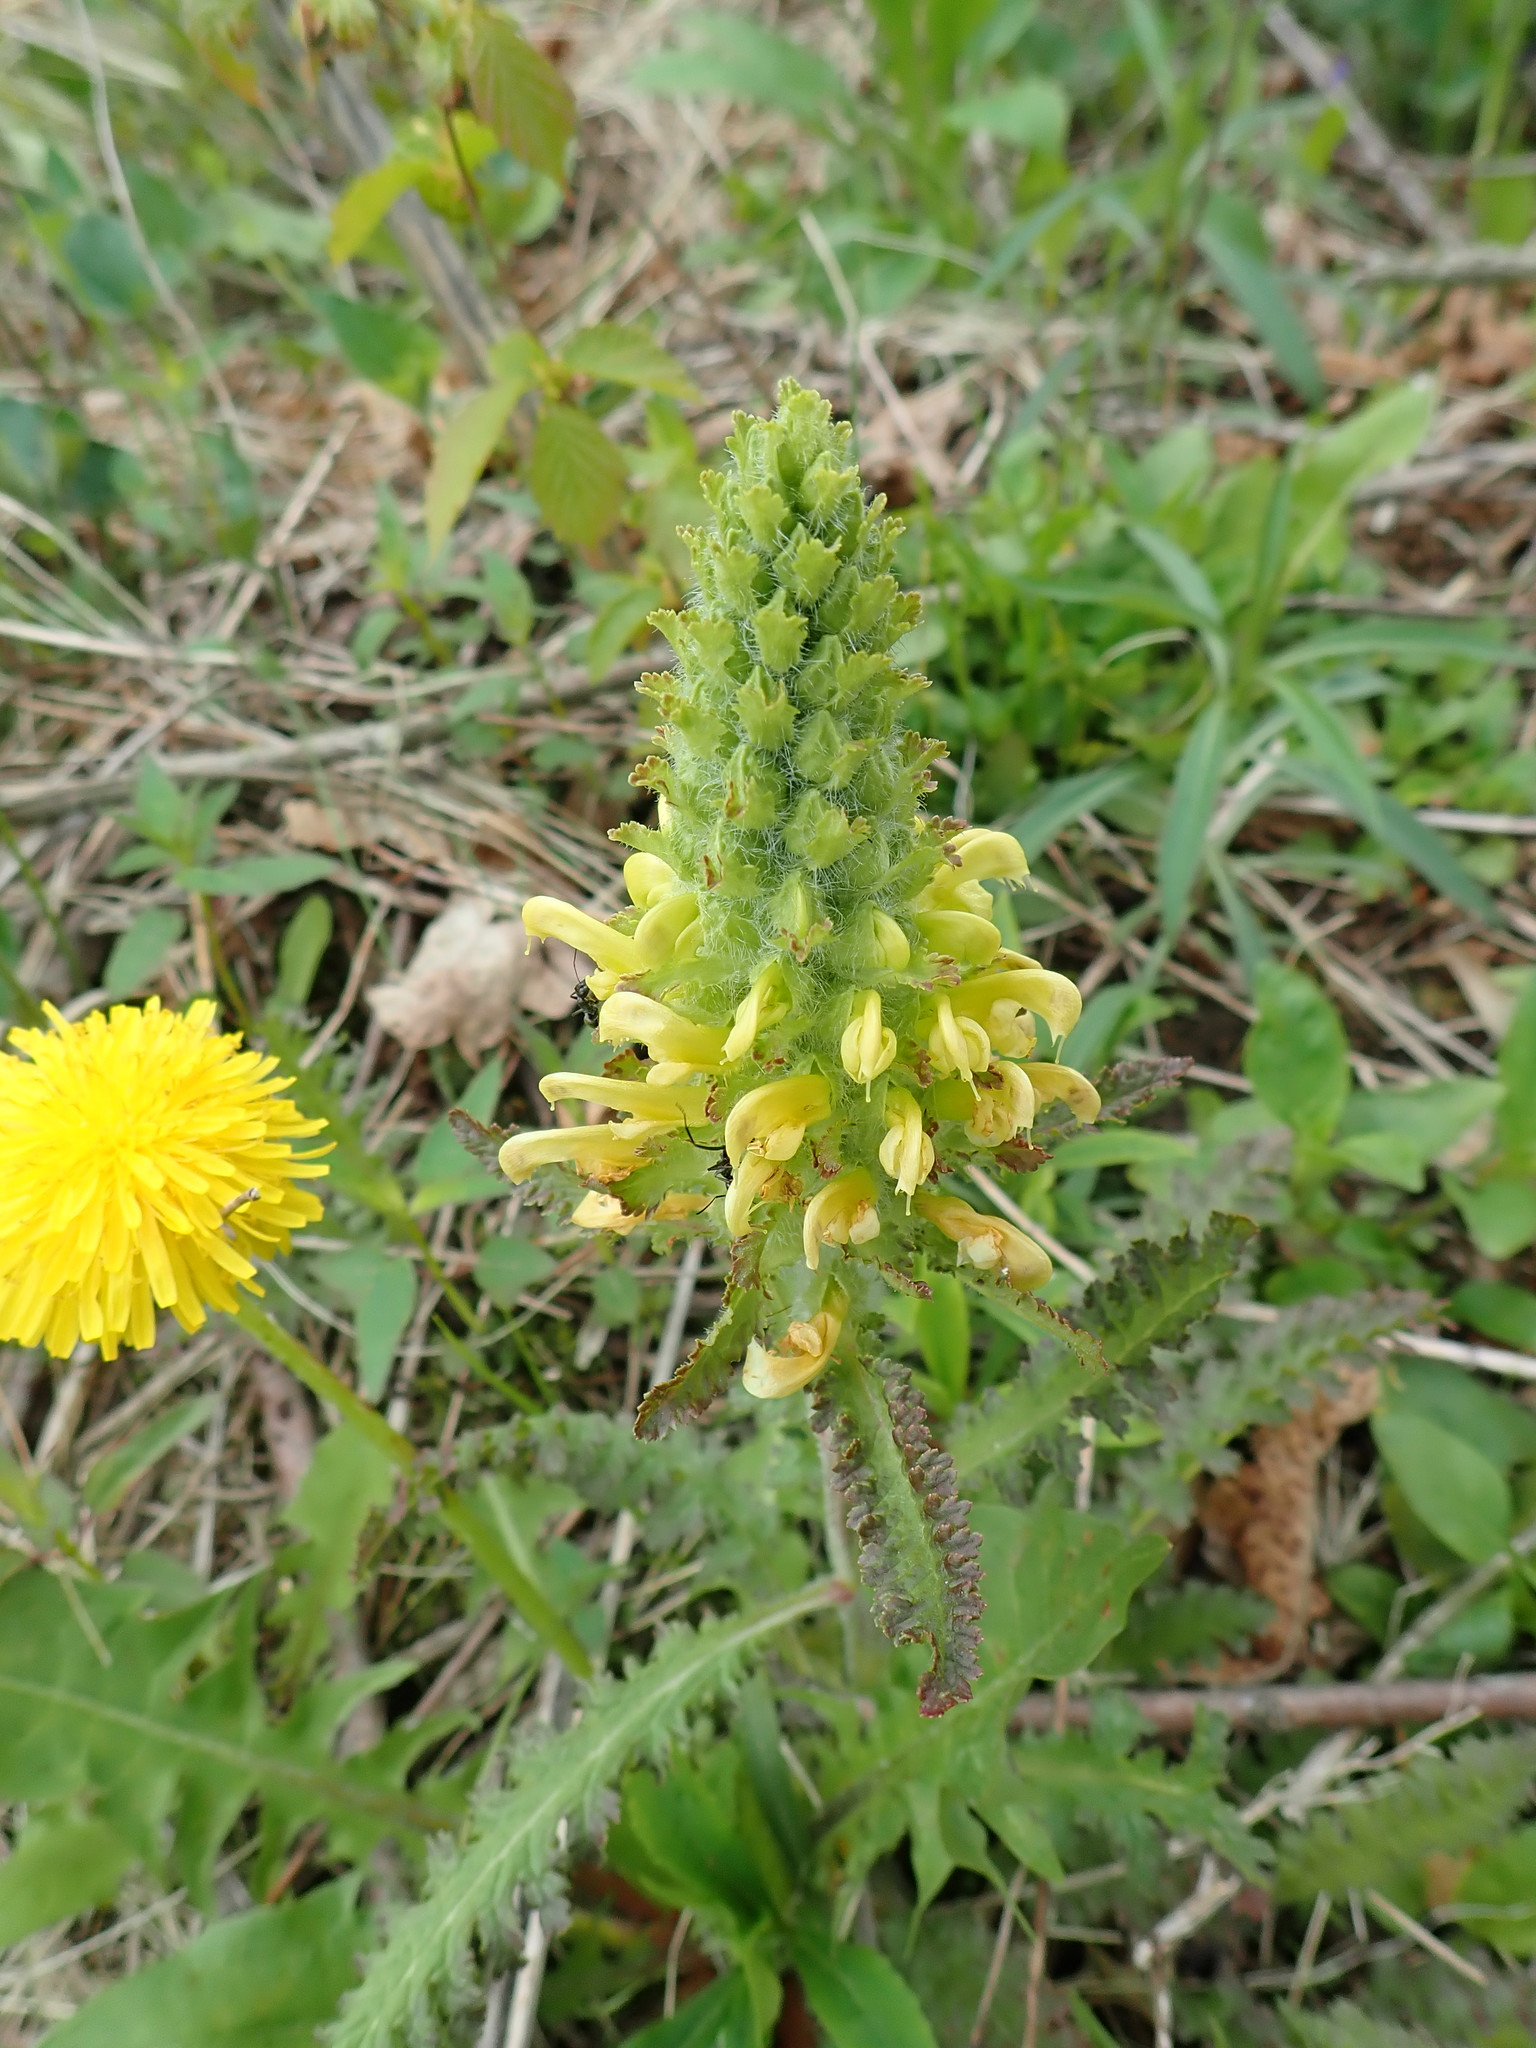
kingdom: Plantae
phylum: Tracheophyta
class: Magnoliopsida
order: Lamiales
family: Orobanchaceae
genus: Pedicularis
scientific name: Pedicularis canadensis
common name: Early lousewort
